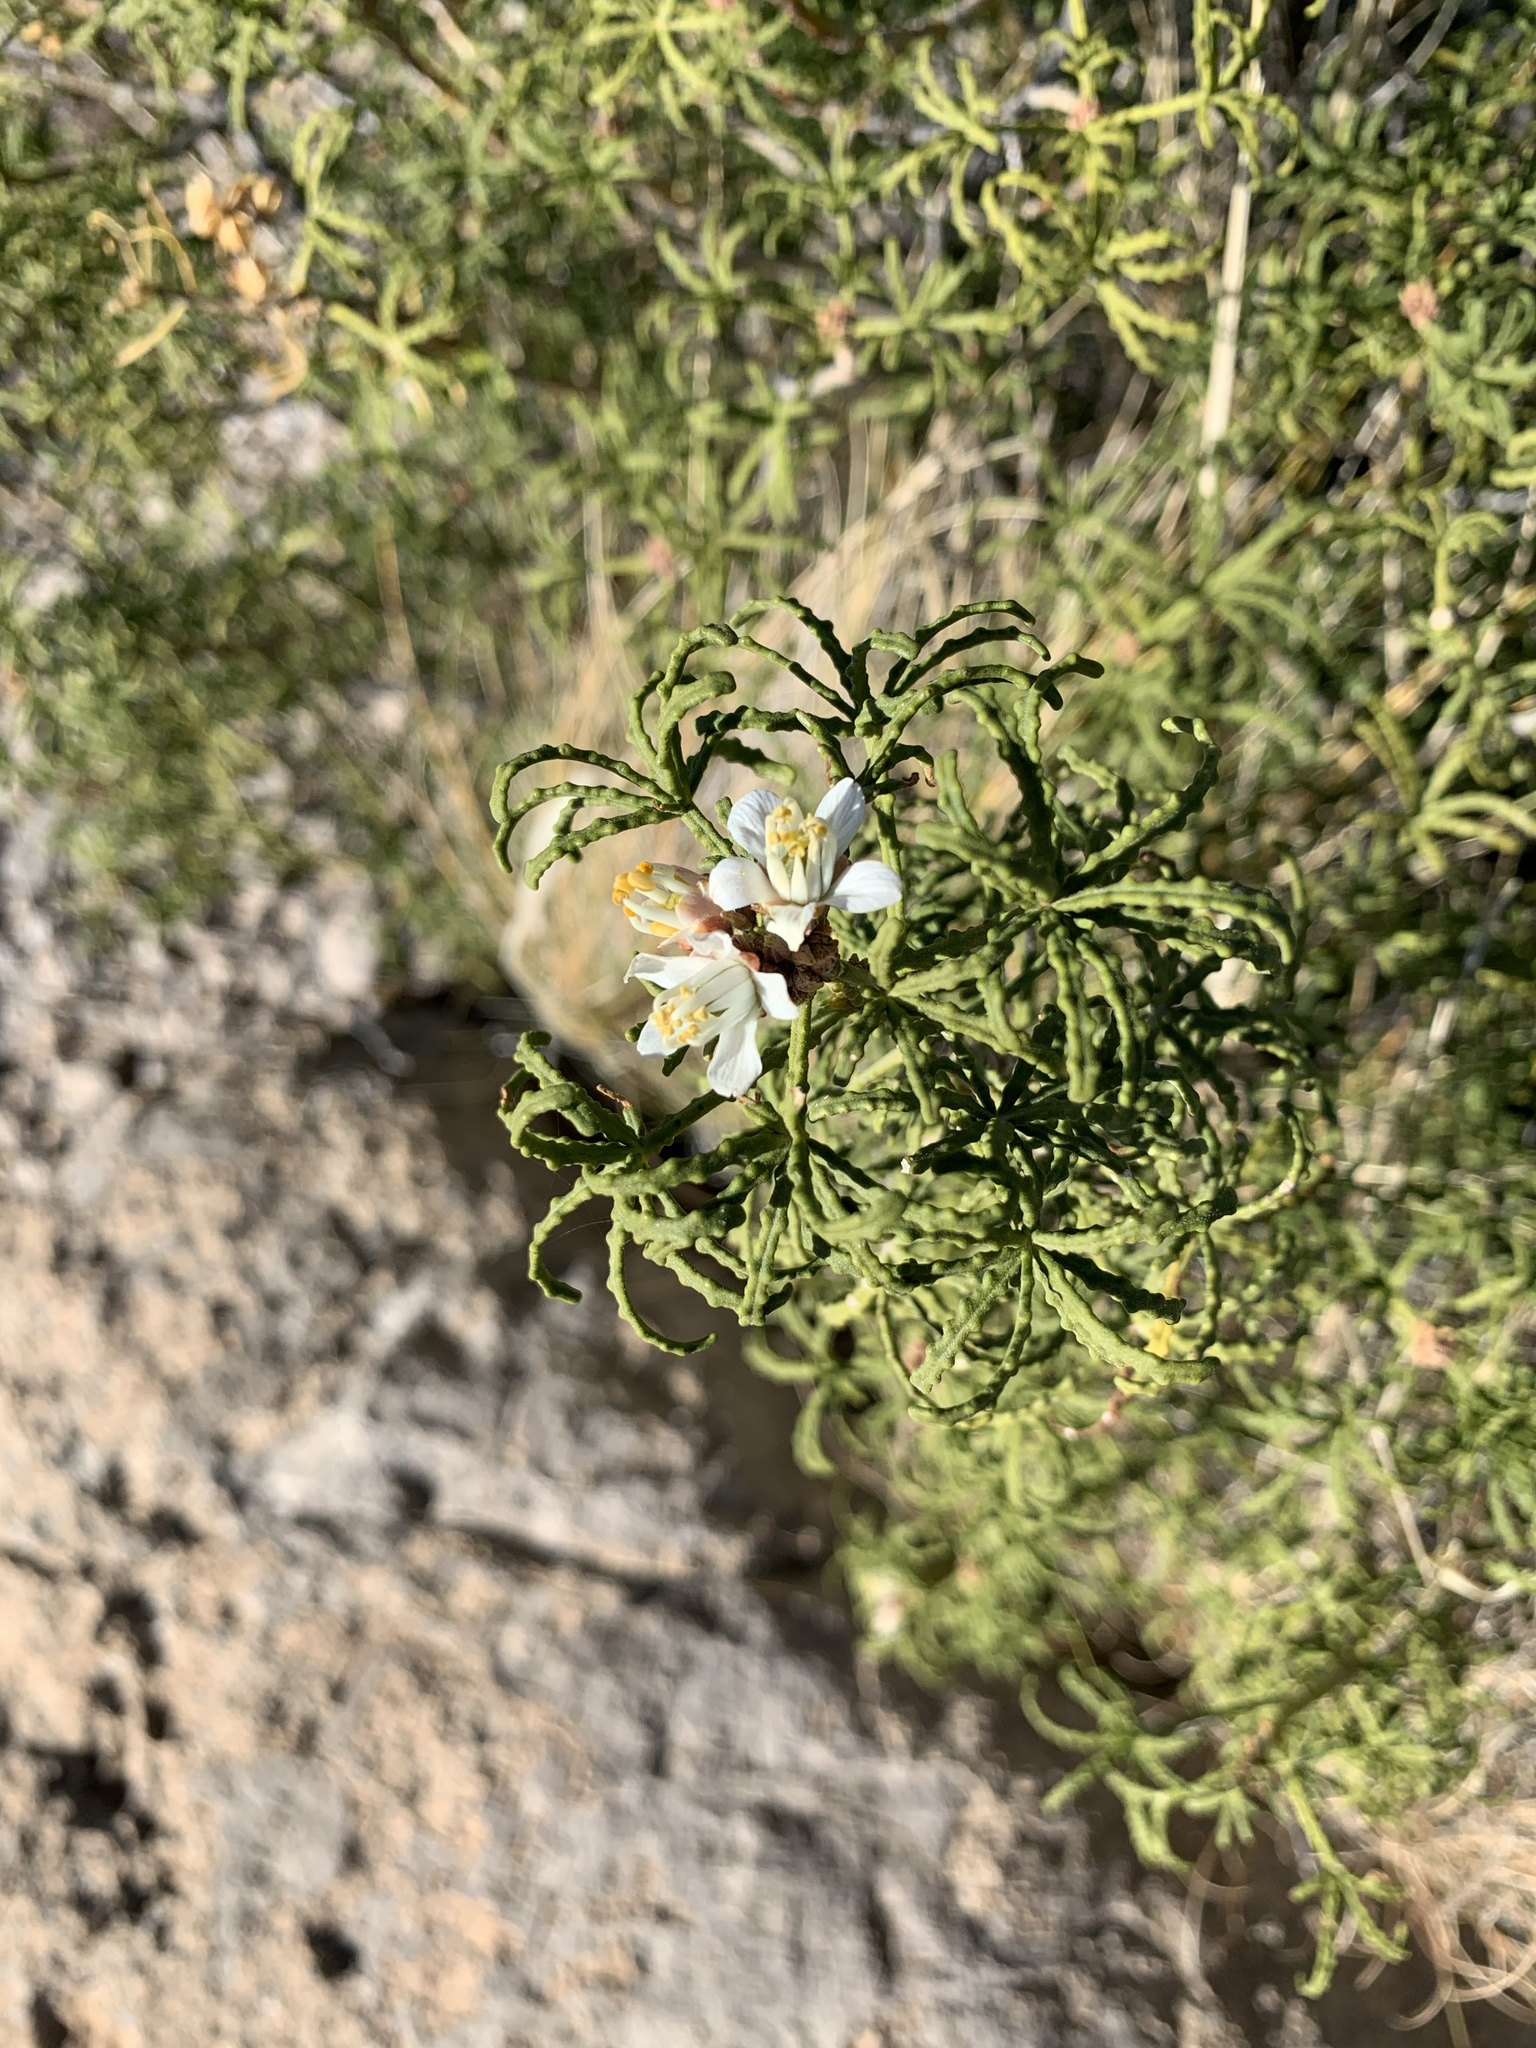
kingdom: Plantae
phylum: Tracheophyta
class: Magnoliopsida
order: Sapindales
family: Rutaceae
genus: Choisya
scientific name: Choisya dumosa
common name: Mexican-orange
